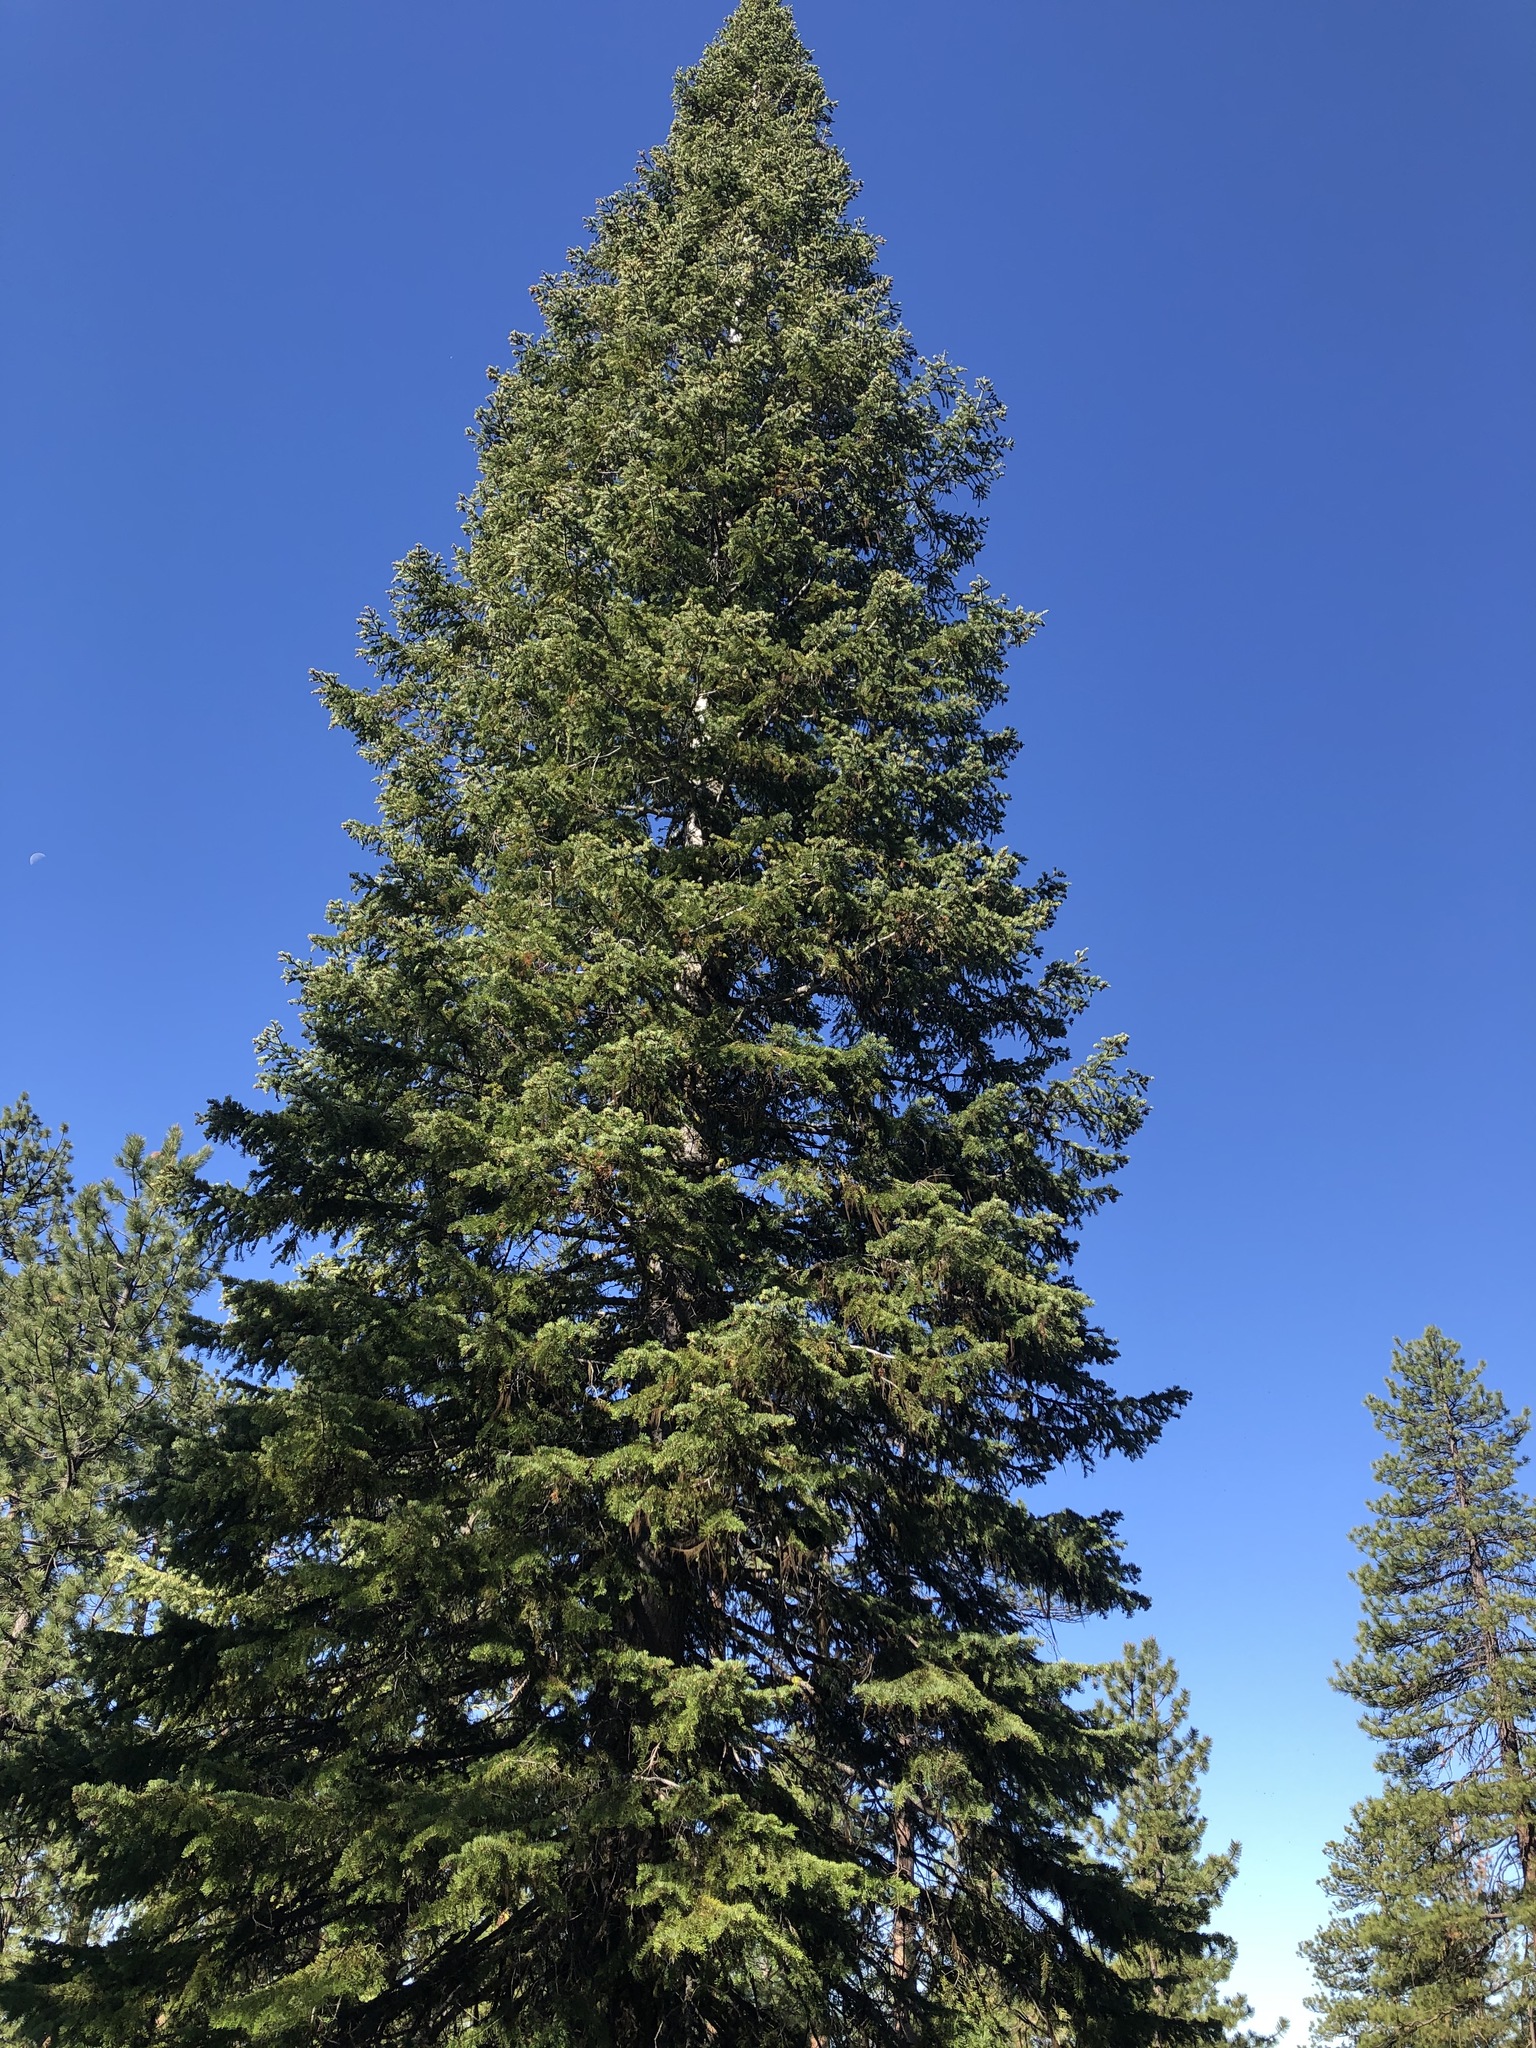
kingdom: Plantae
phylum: Tracheophyta
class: Pinopsida
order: Pinales
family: Pinaceae
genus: Abies
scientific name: Abies concolor
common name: Colorado fir
